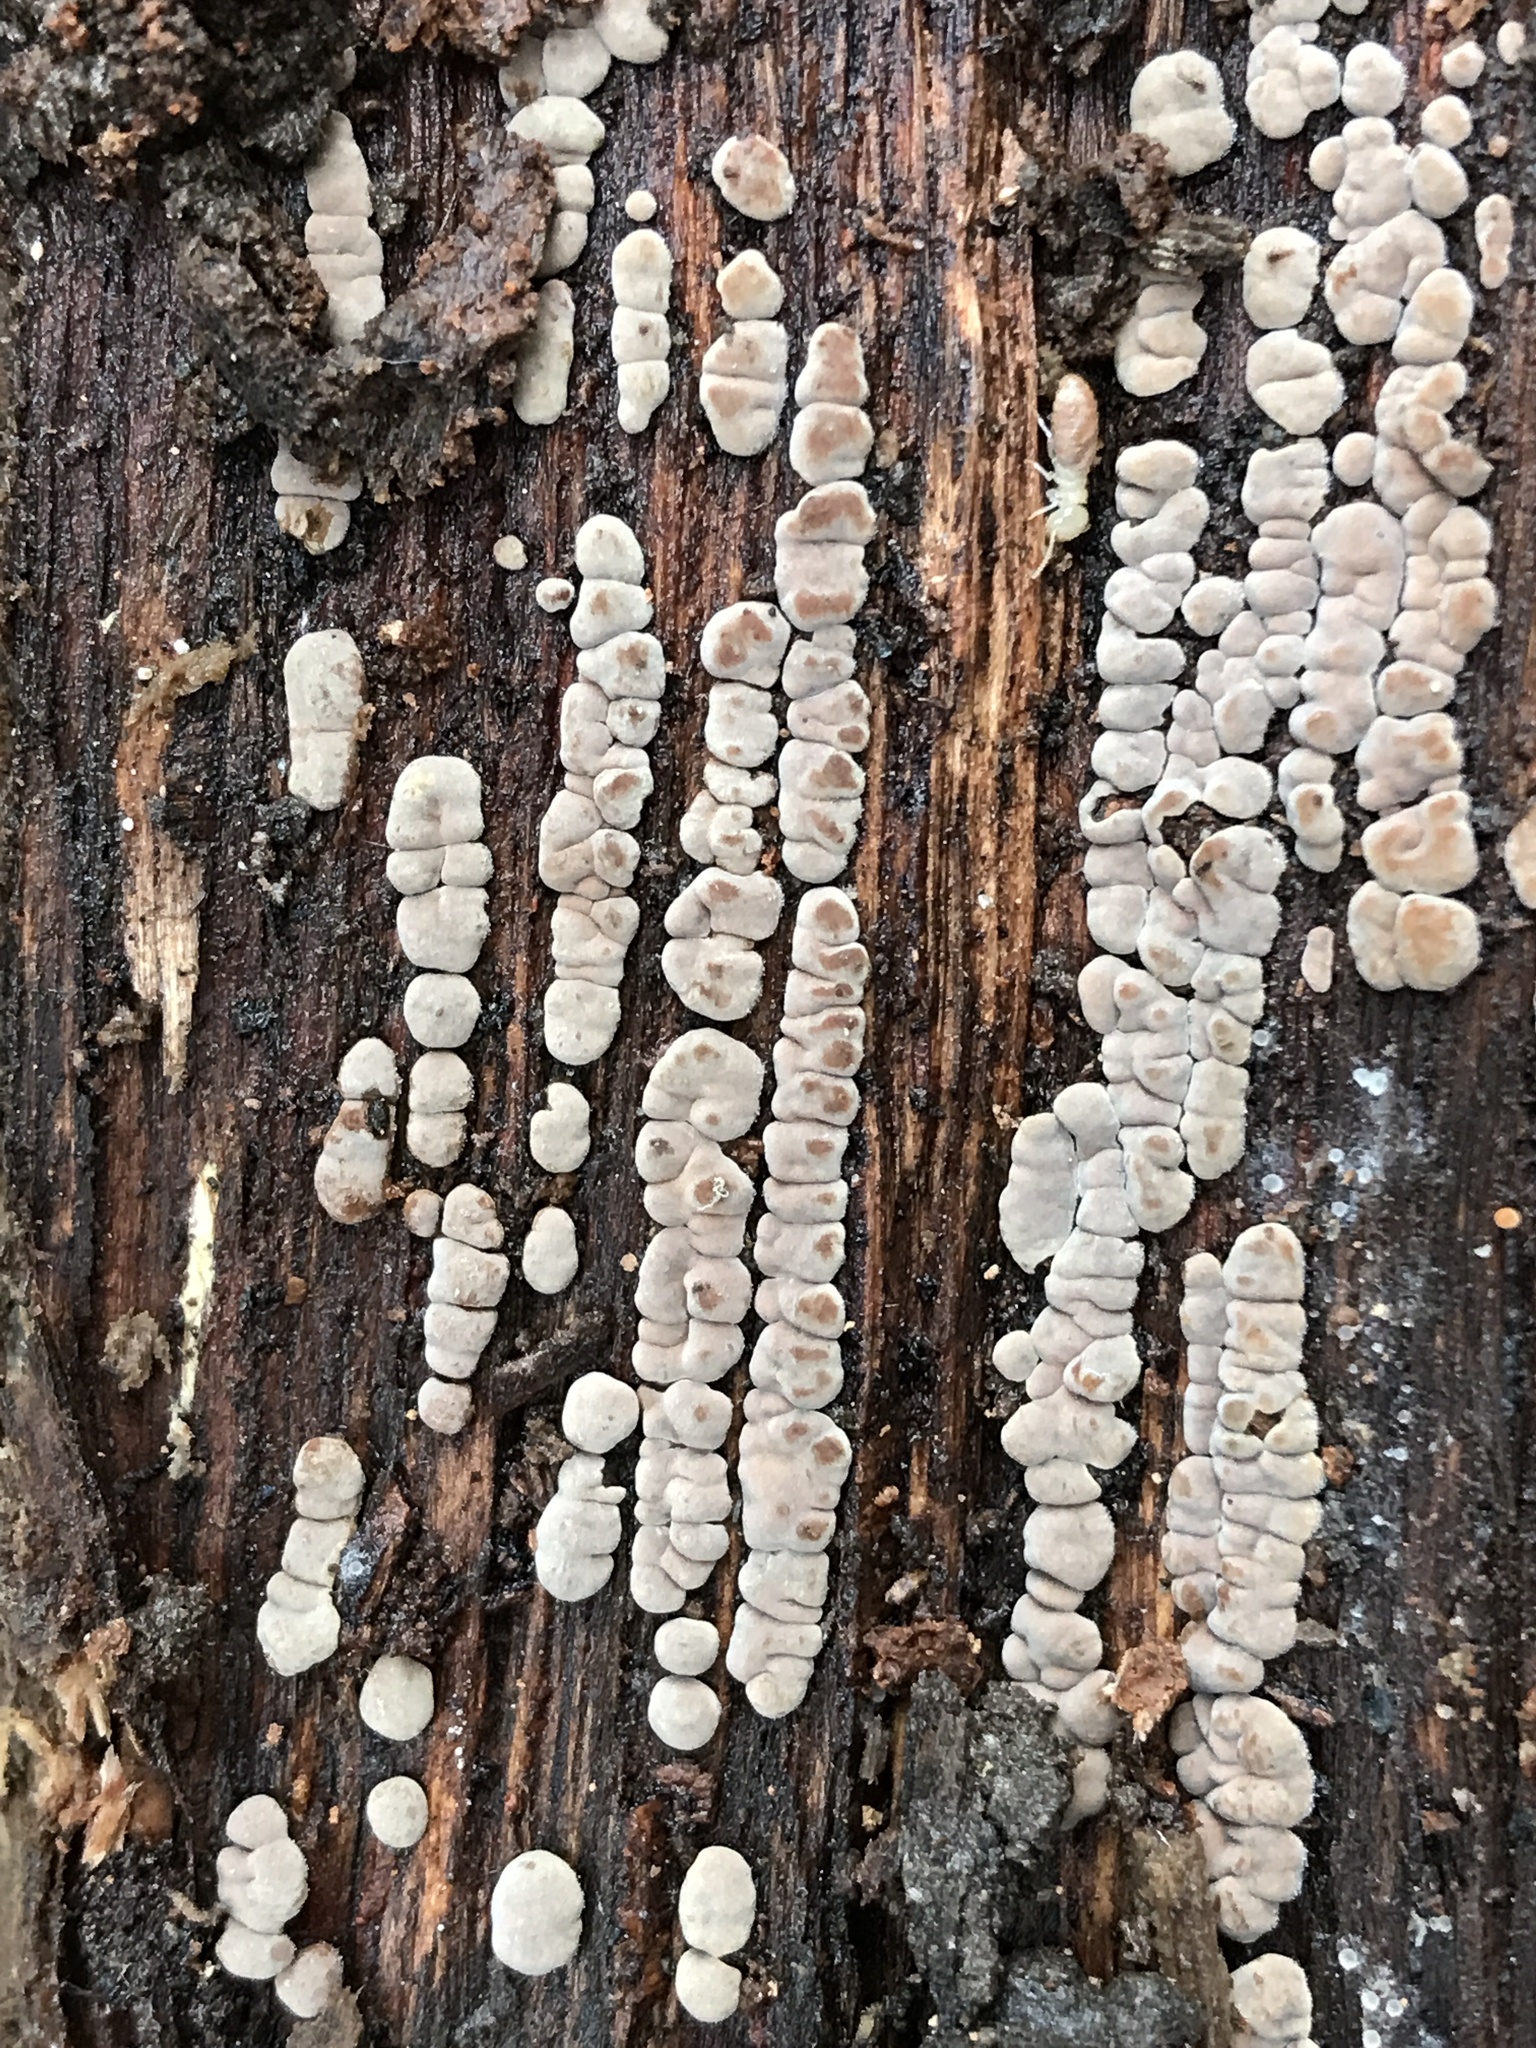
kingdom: Fungi
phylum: Basidiomycota
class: Agaricomycetes
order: Russulales
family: Stereaceae
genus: Xylobolus
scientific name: Xylobolus frustulatus
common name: Ceramic parchment
